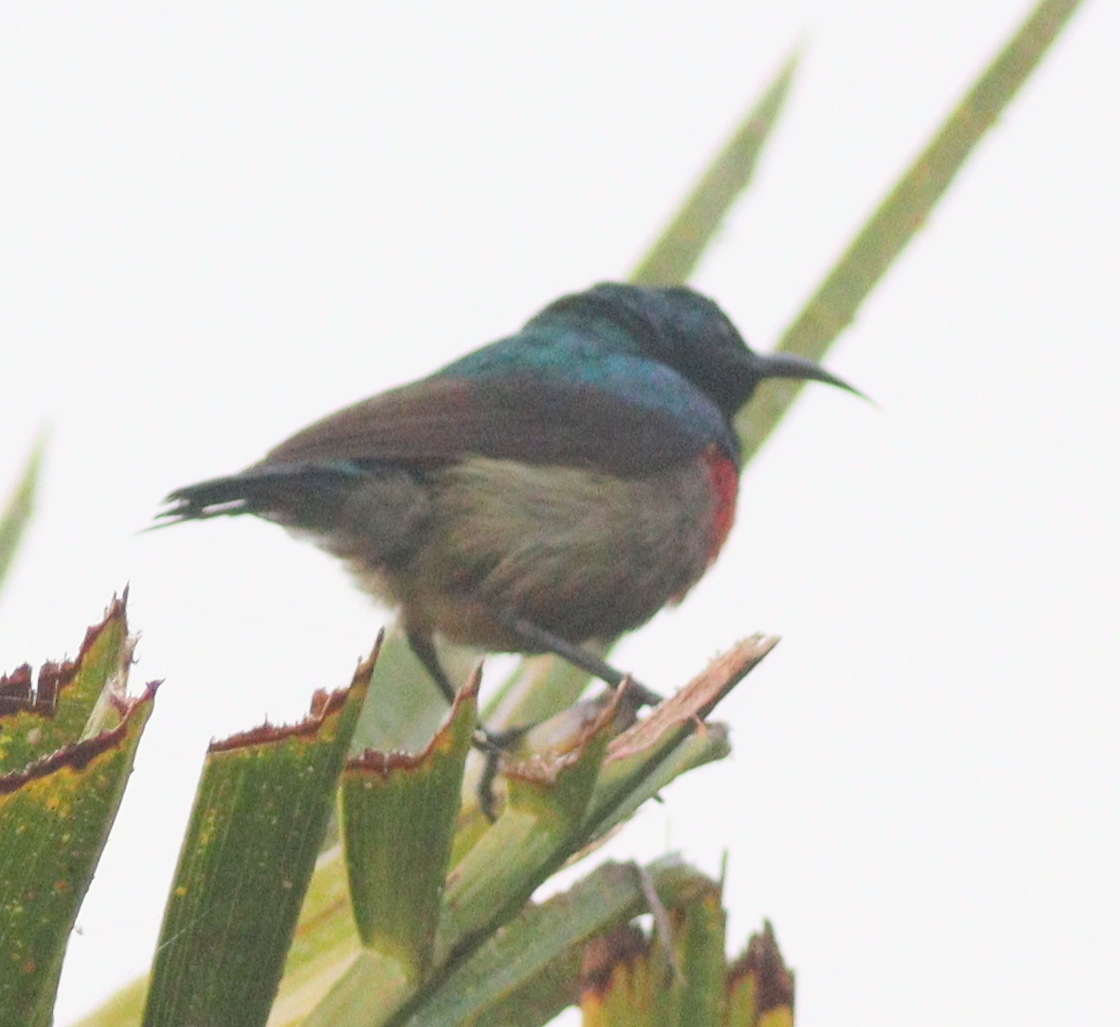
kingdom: Animalia
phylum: Chordata
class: Aves
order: Passeriformes
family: Nectariniidae
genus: Cinnyris
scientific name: Cinnyris chloropygius
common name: Olive-bellied sunbird
